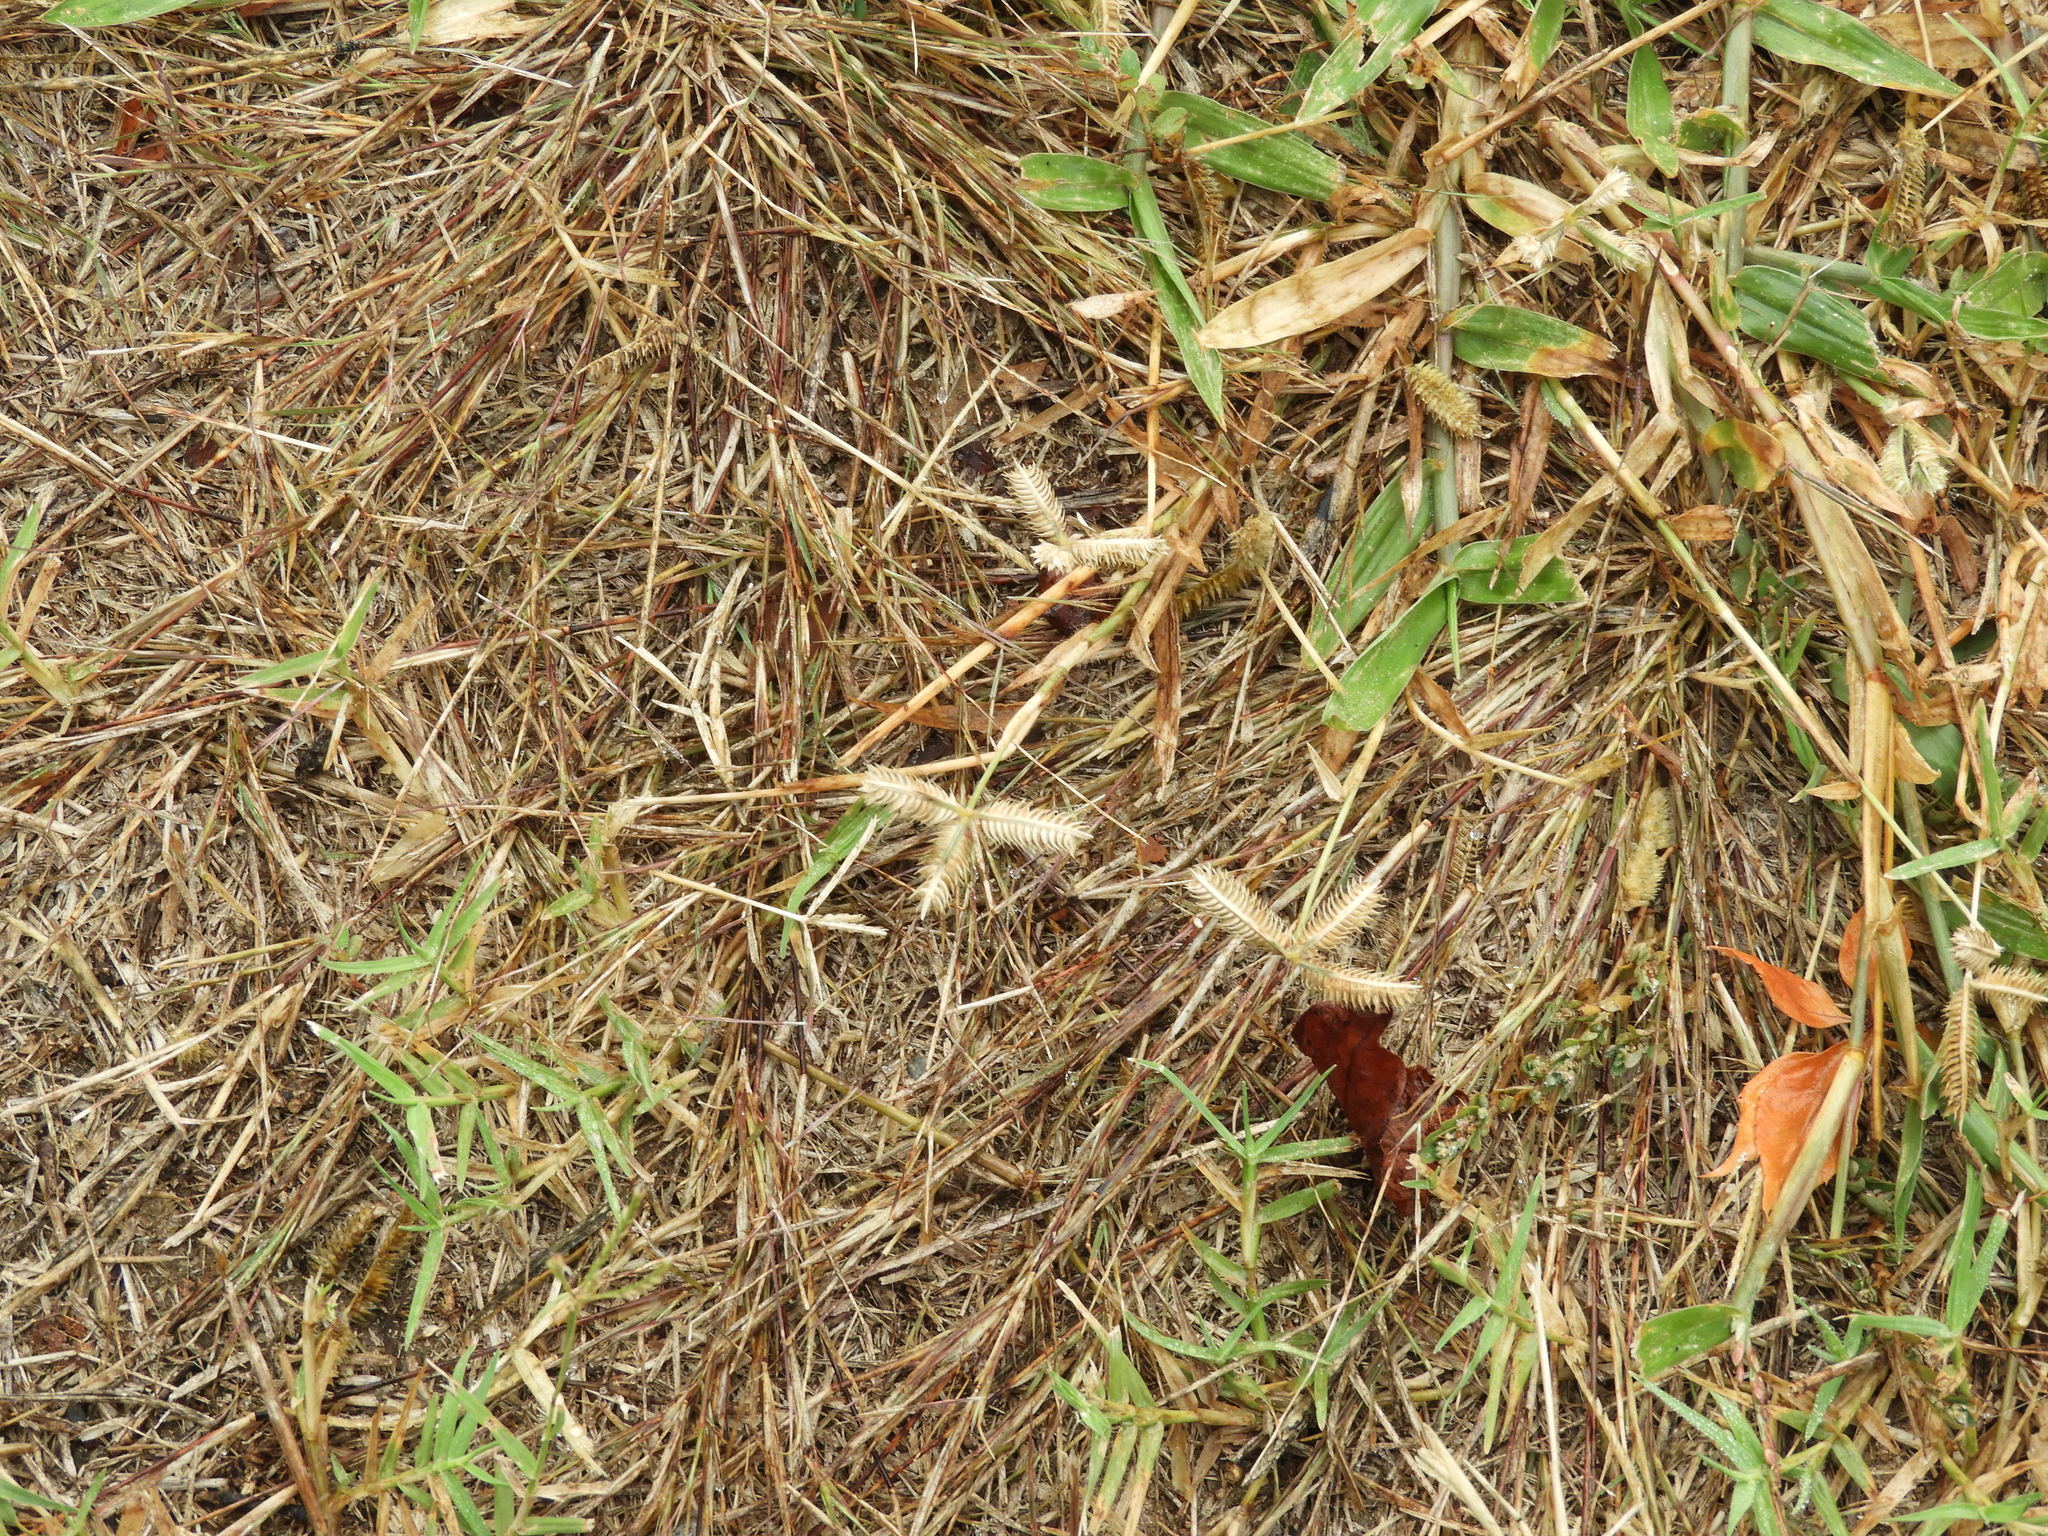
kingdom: Plantae
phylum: Tracheophyta
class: Liliopsida
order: Poales
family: Poaceae
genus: Dactyloctenium
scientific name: Dactyloctenium aegyptium
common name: Egyptian grass
